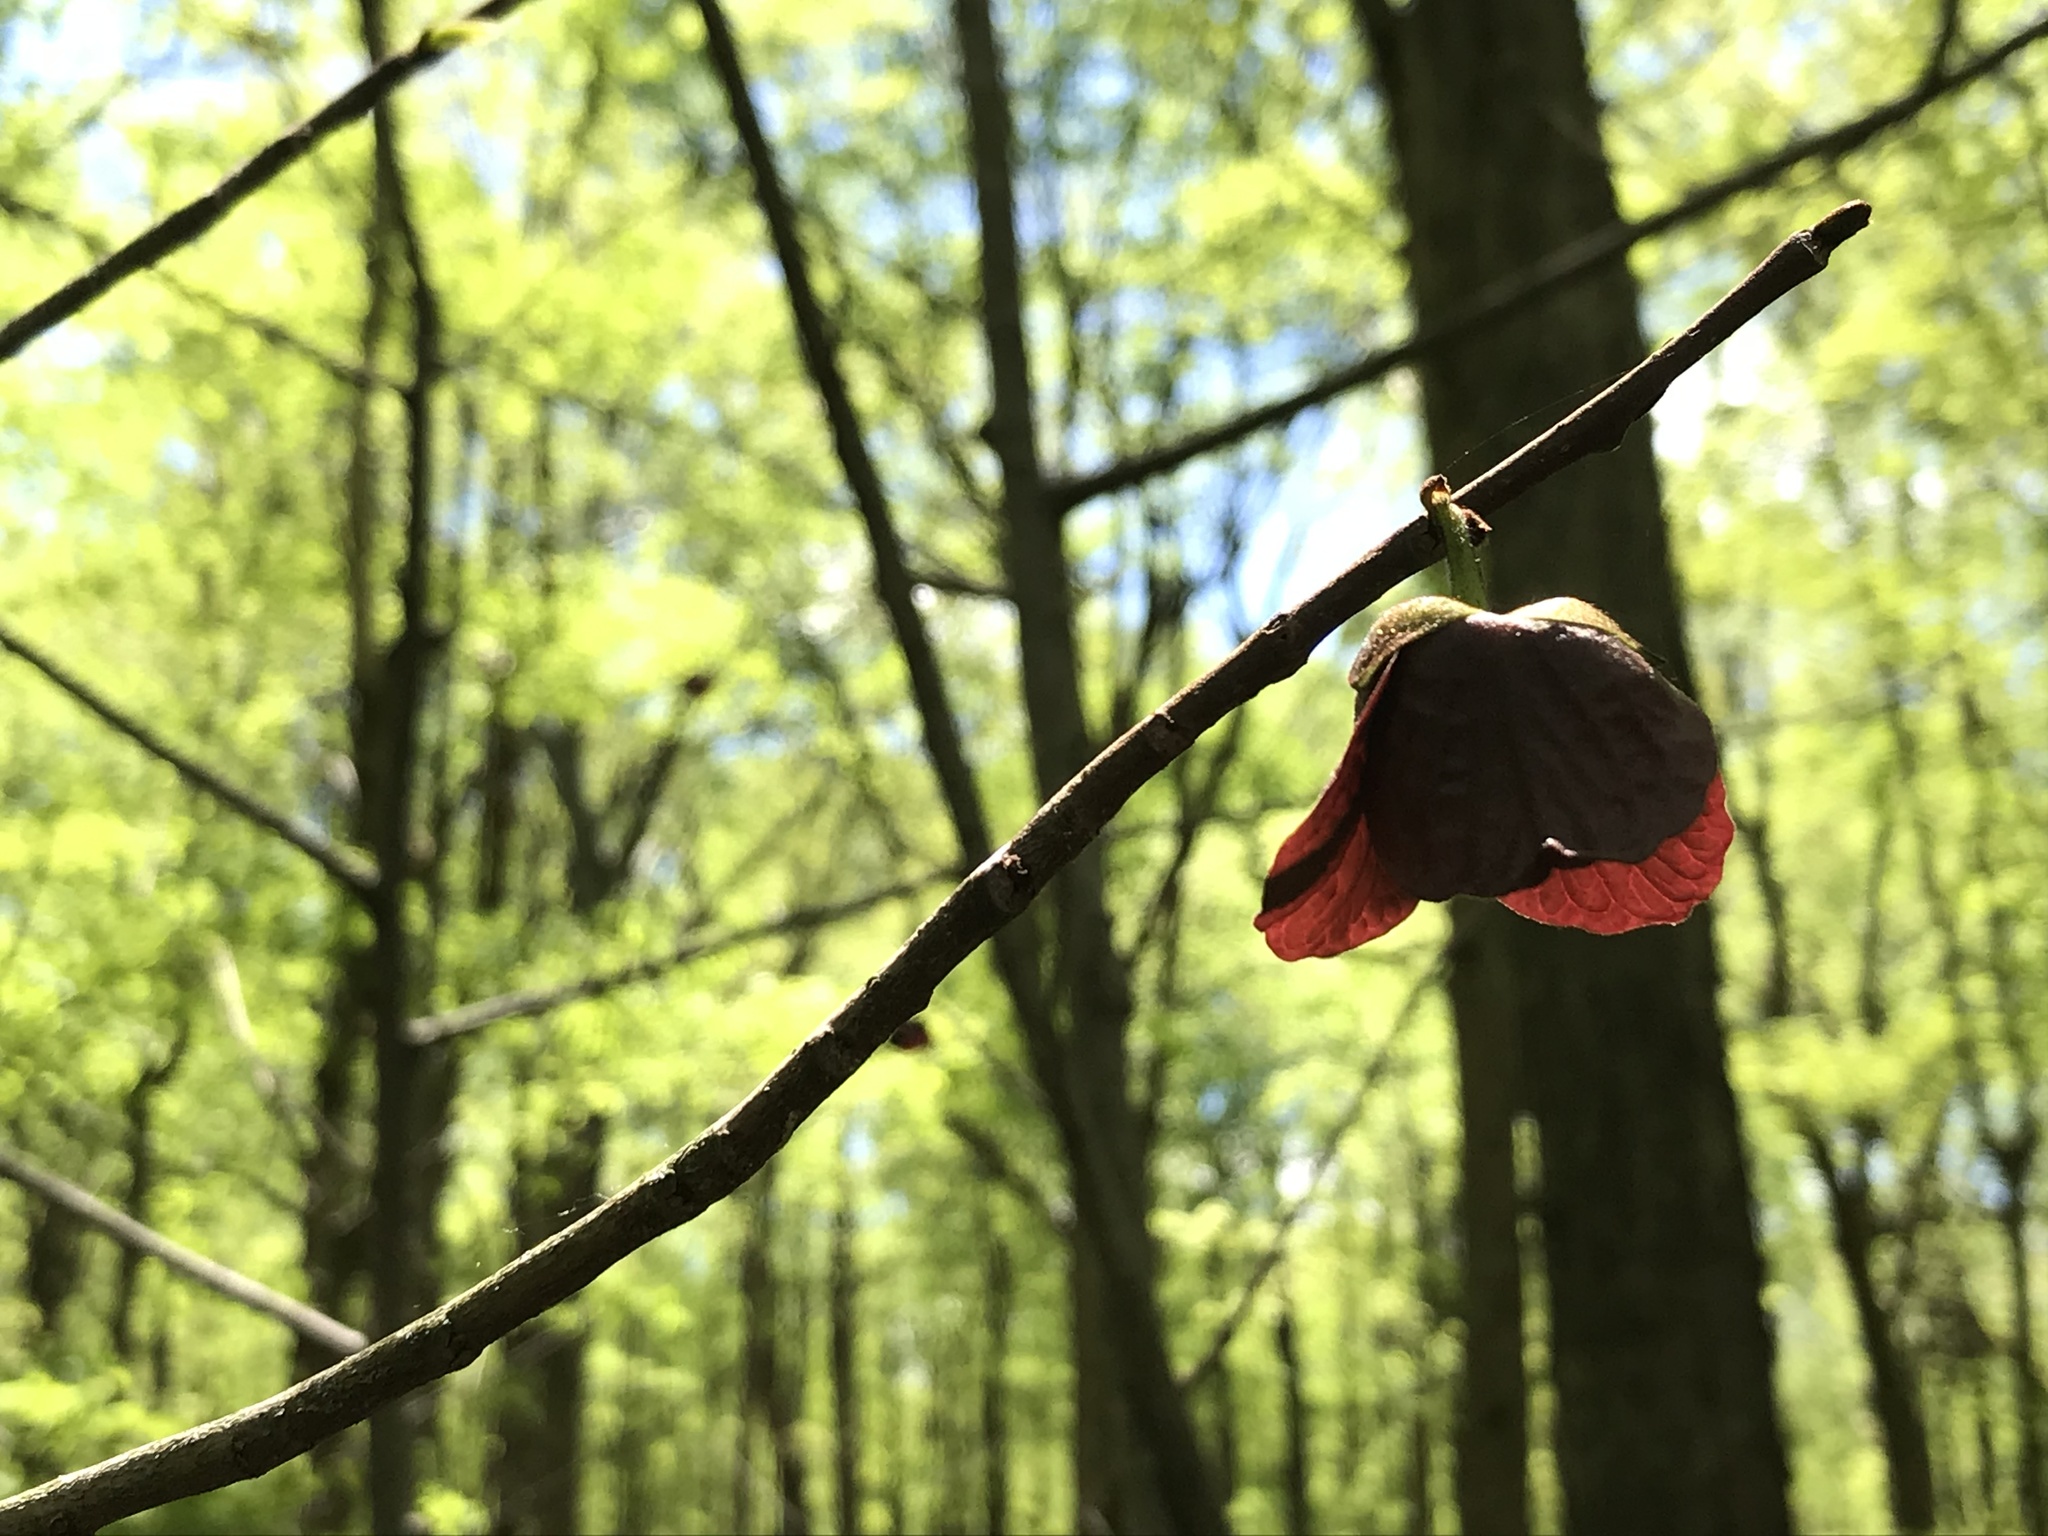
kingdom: Plantae
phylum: Tracheophyta
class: Magnoliopsida
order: Magnoliales
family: Annonaceae
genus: Asimina
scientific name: Asimina triloba
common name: Dog-banana
